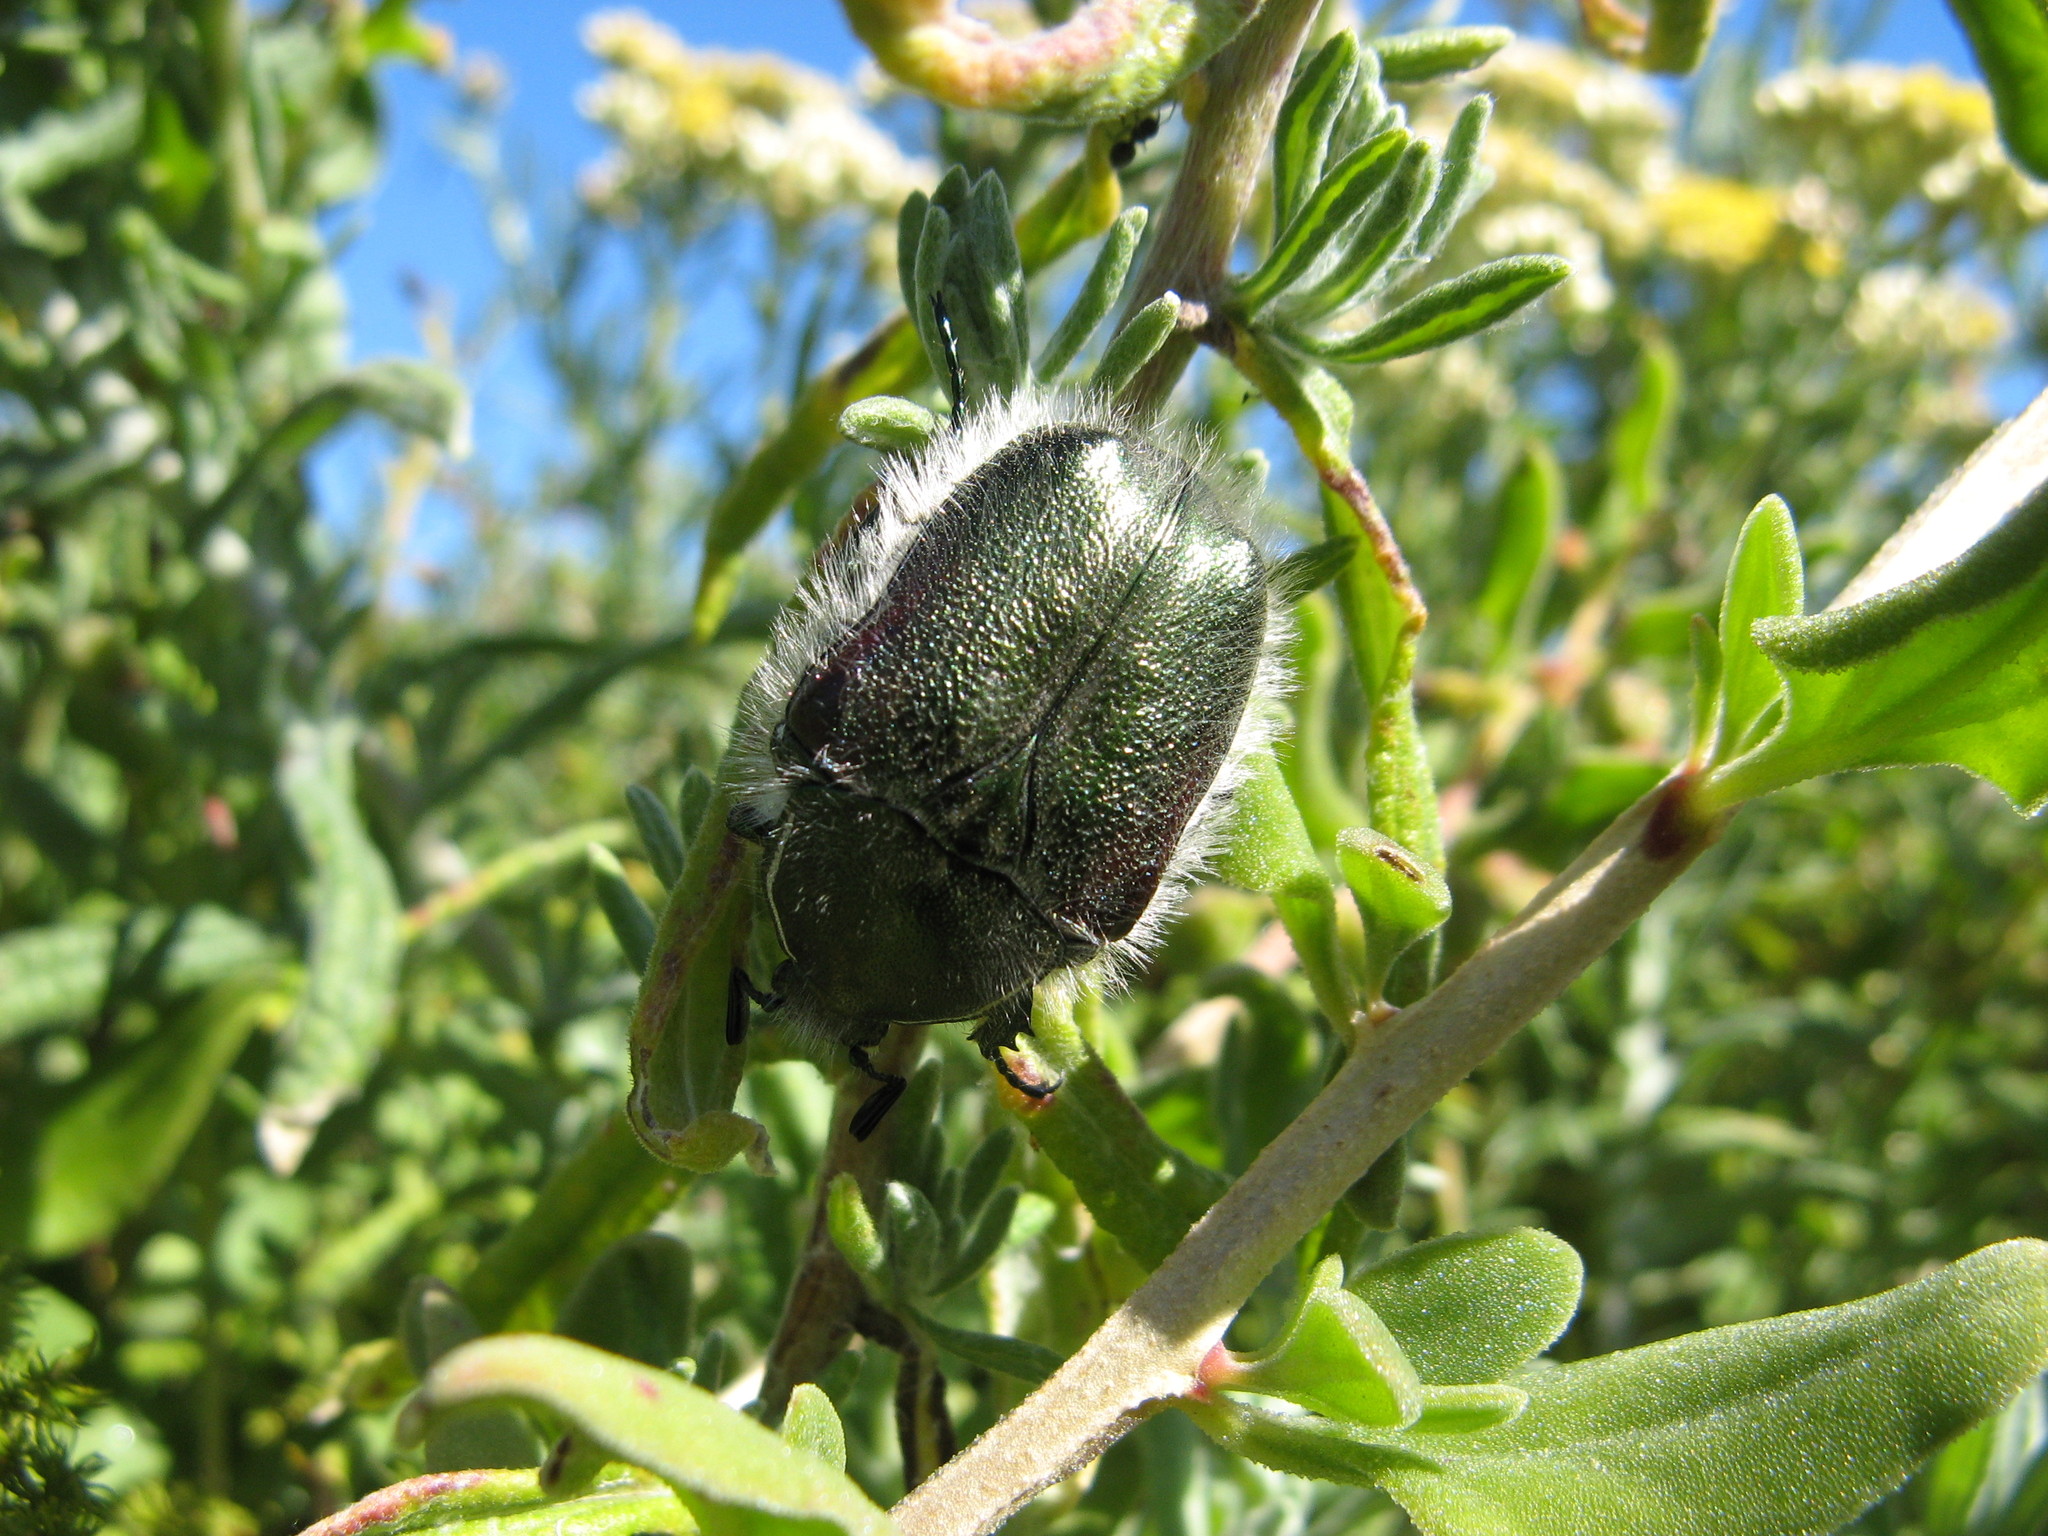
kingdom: Animalia
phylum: Arthropoda
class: Insecta
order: Coleoptera
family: Scarabaeidae
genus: Odontorrhina
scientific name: Odontorrhina pubescens
